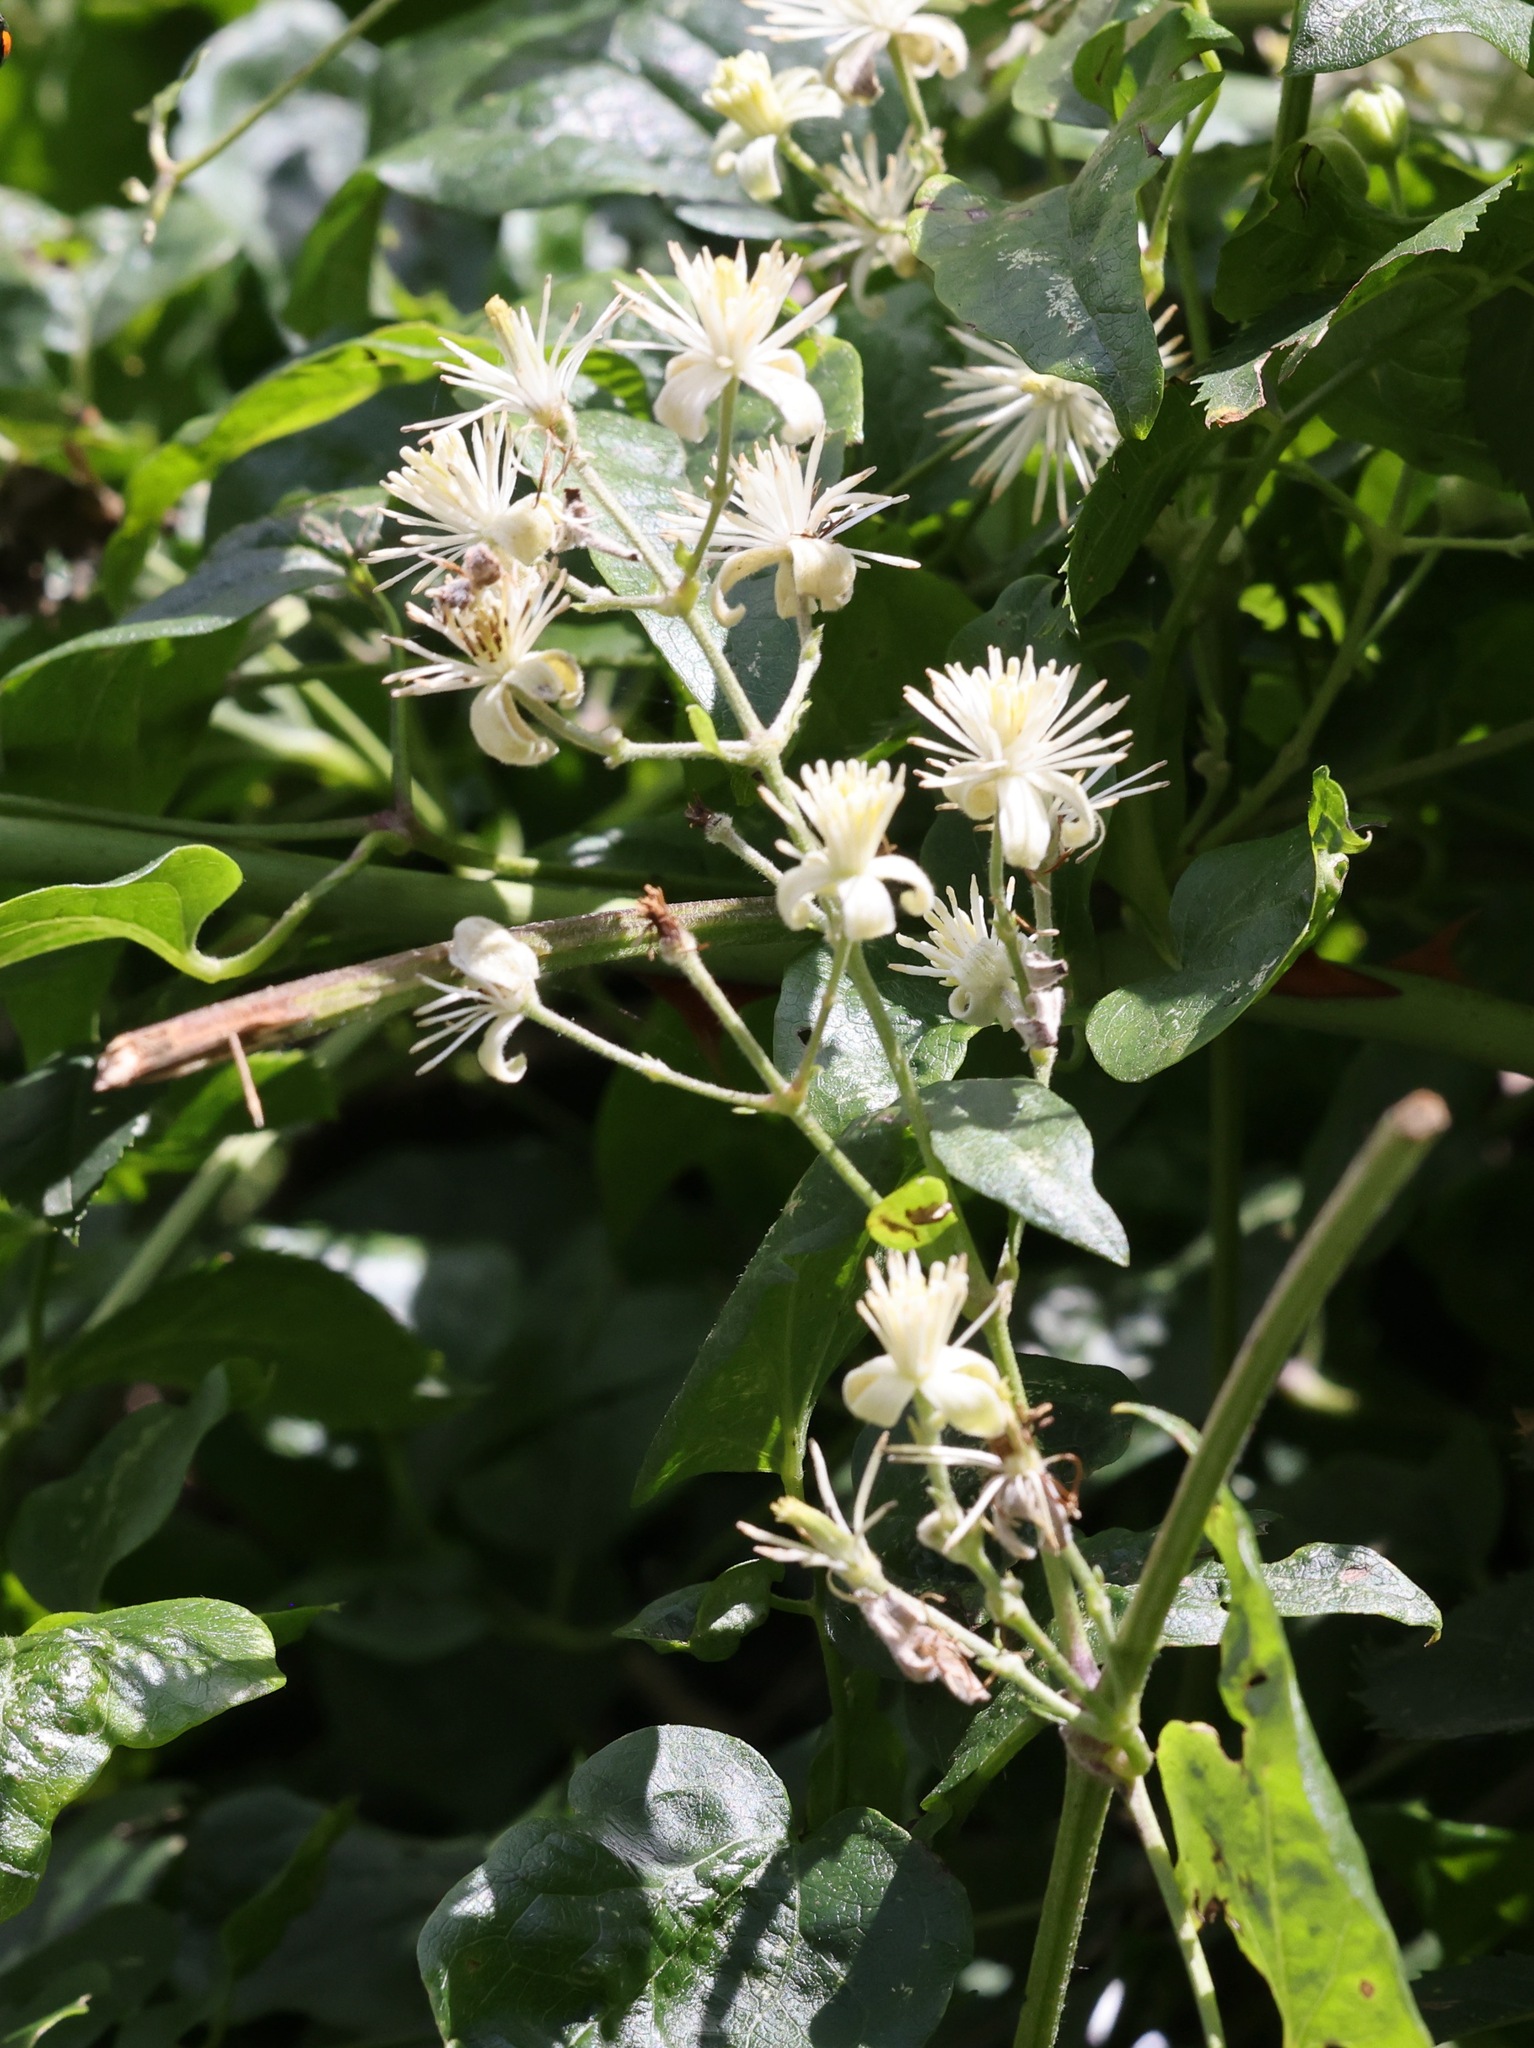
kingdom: Plantae
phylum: Tracheophyta
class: Magnoliopsida
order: Ranunculales
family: Ranunculaceae
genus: Clematis
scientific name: Clematis vitalba
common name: Evergreen clematis
